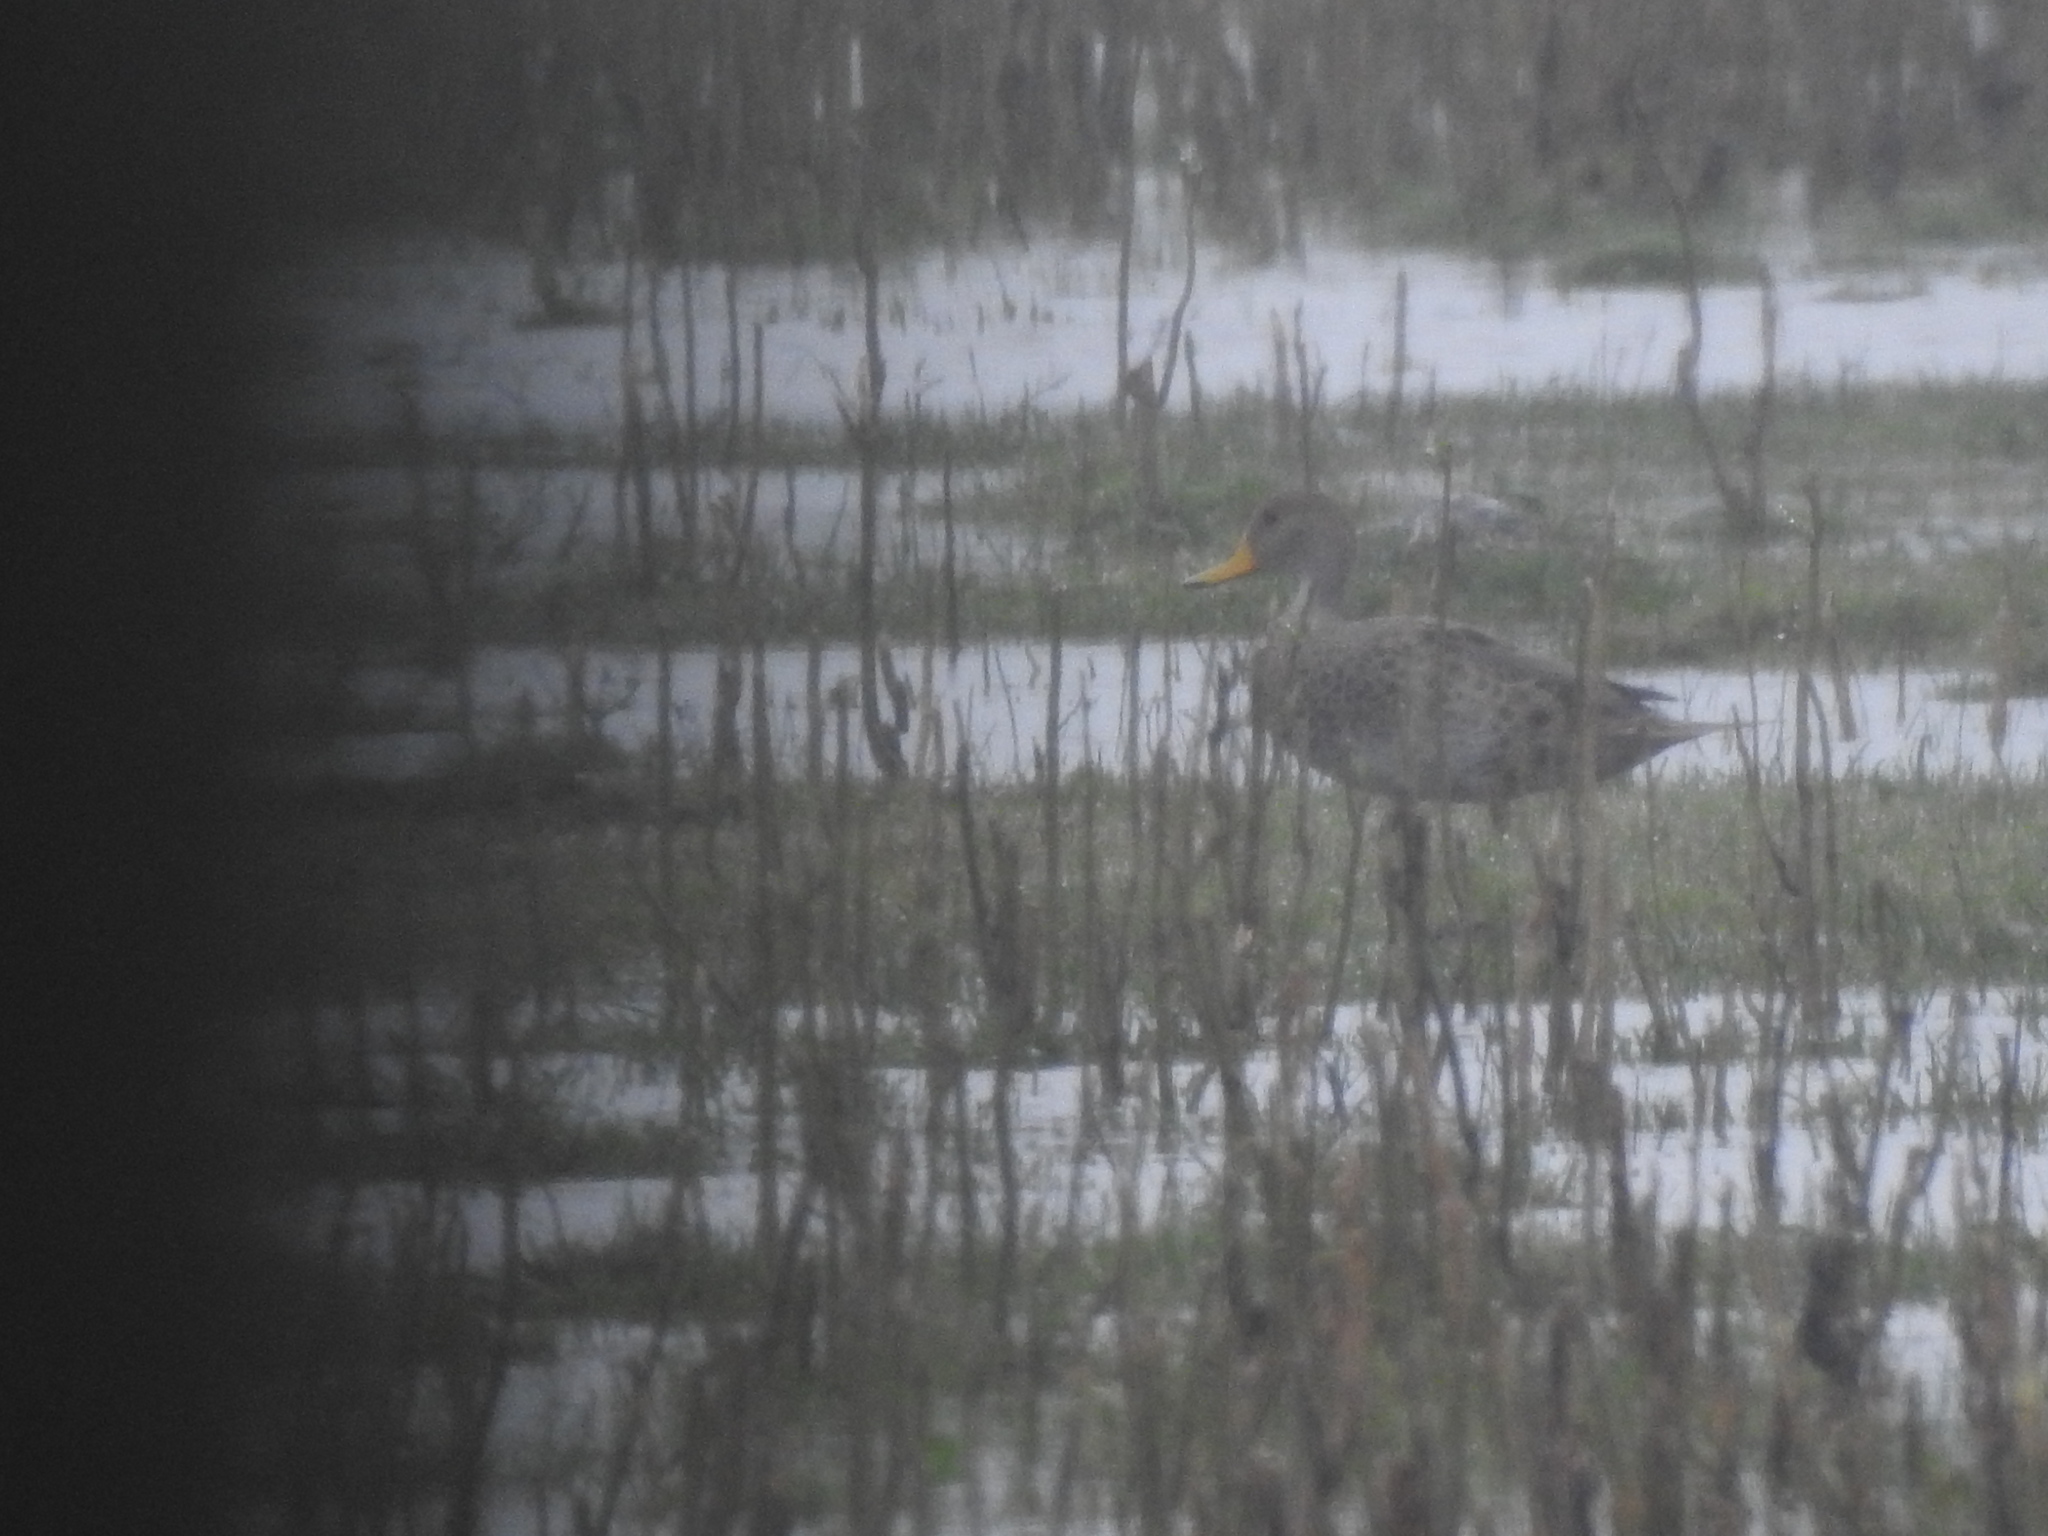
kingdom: Animalia
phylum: Chordata
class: Aves
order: Anseriformes
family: Anatidae
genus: Anas
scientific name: Anas georgica
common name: Yellow-billed pintail
